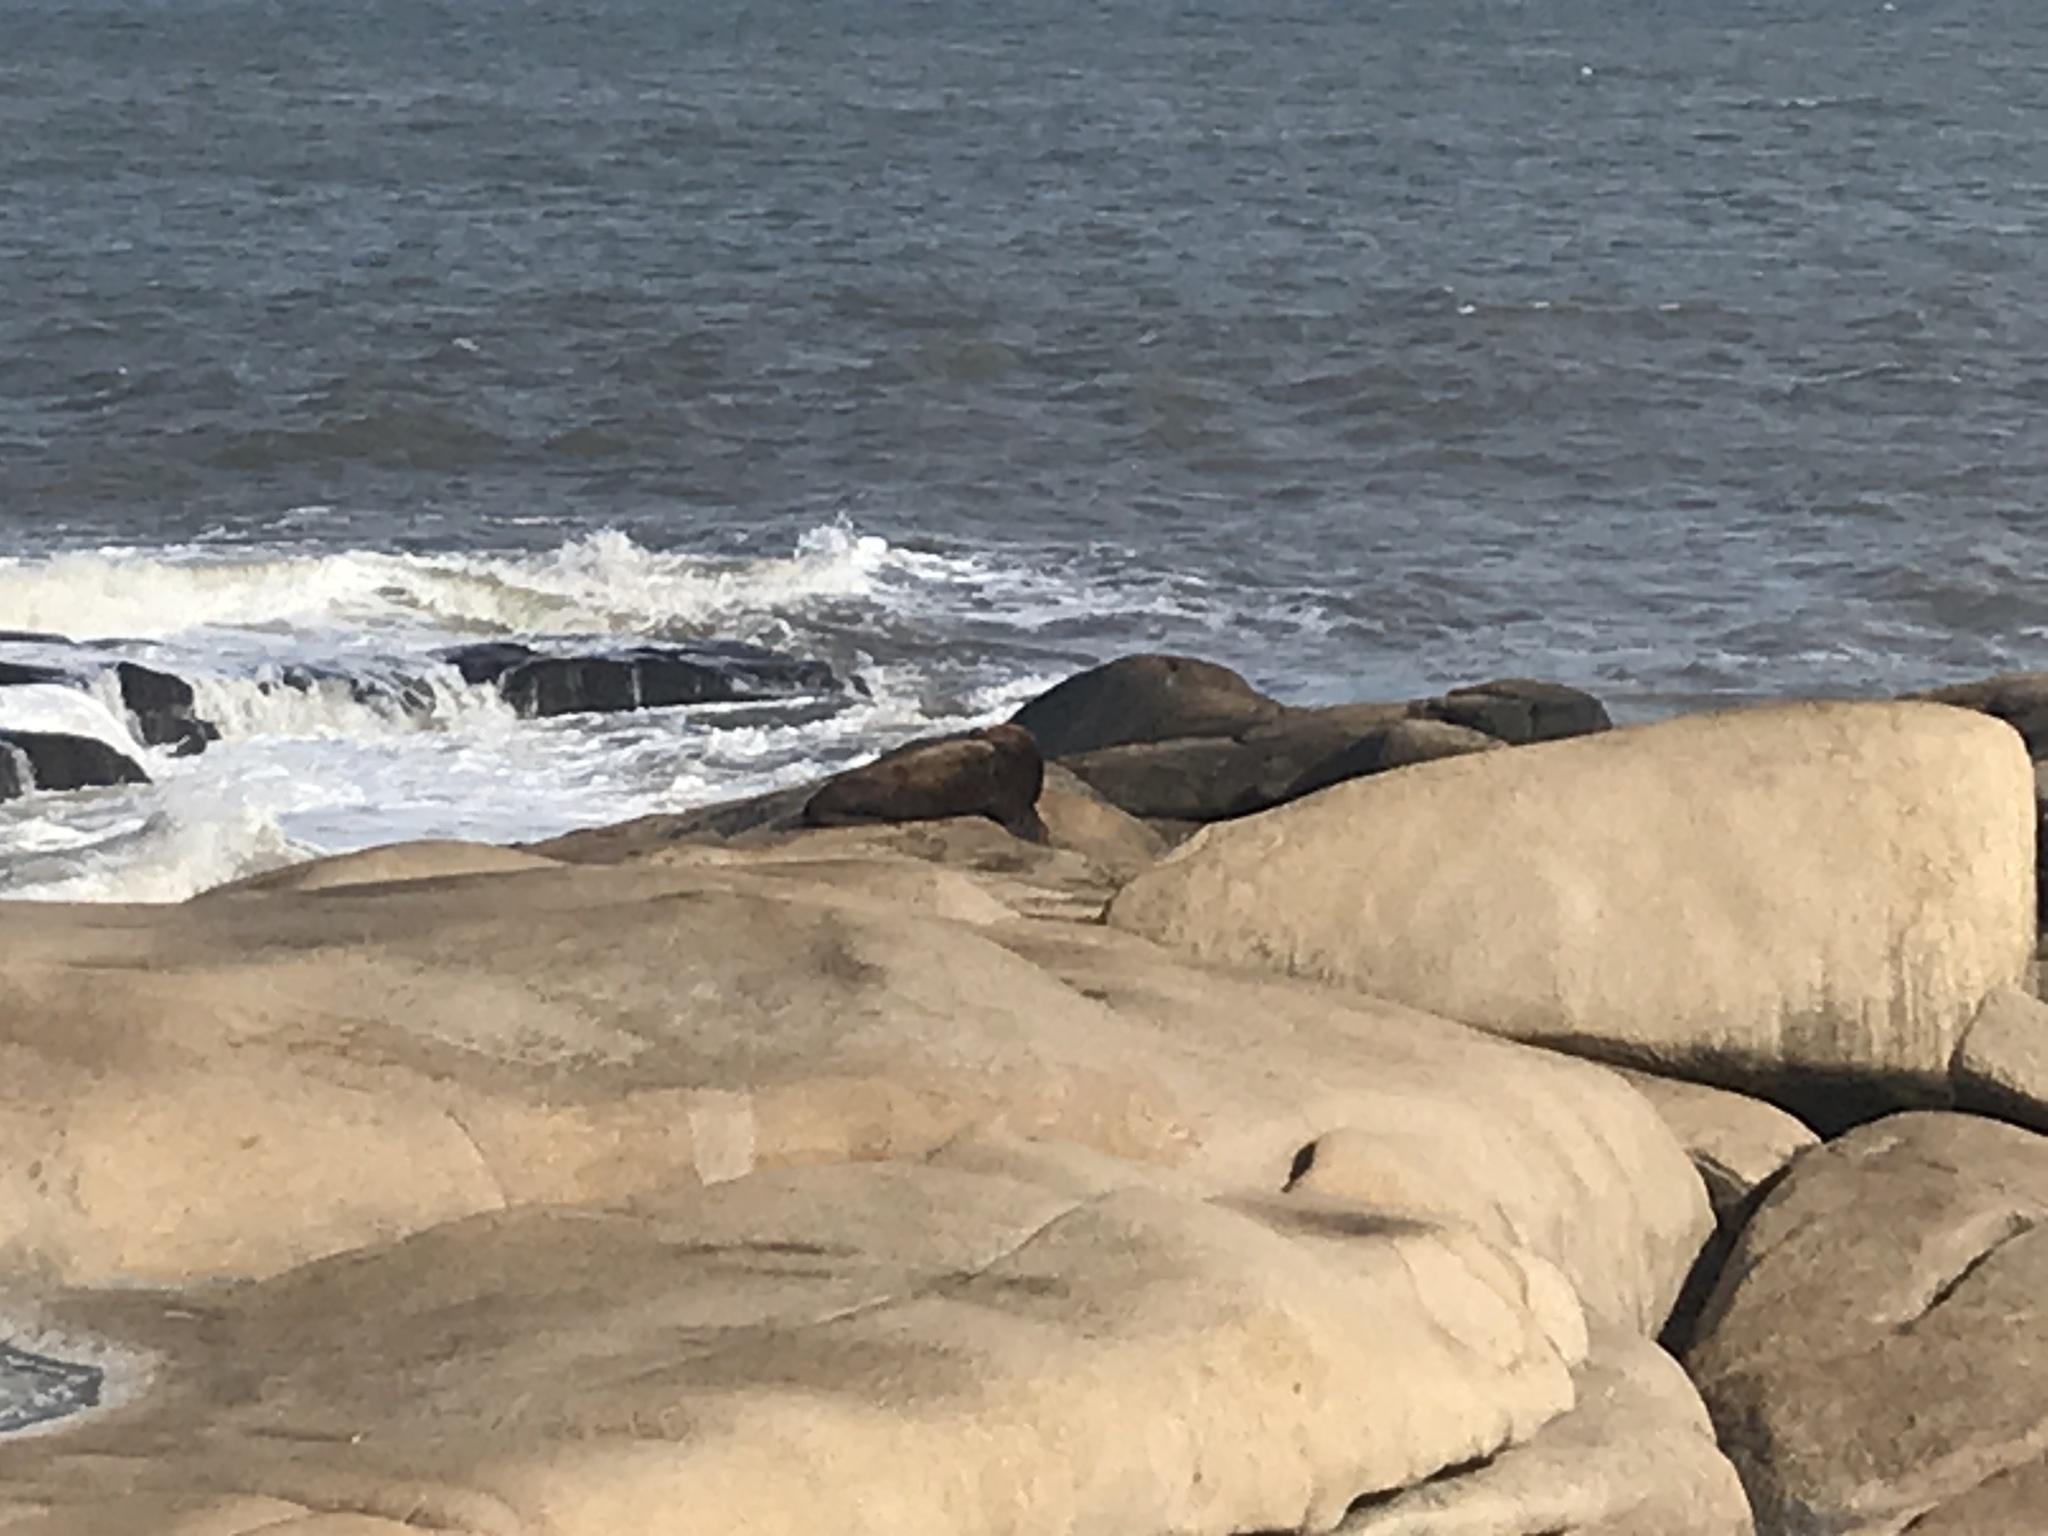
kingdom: Animalia
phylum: Chordata
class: Mammalia
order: Carnivora
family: Otariidae
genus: Otaria
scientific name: Otaria byronia
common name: South american sea lion
